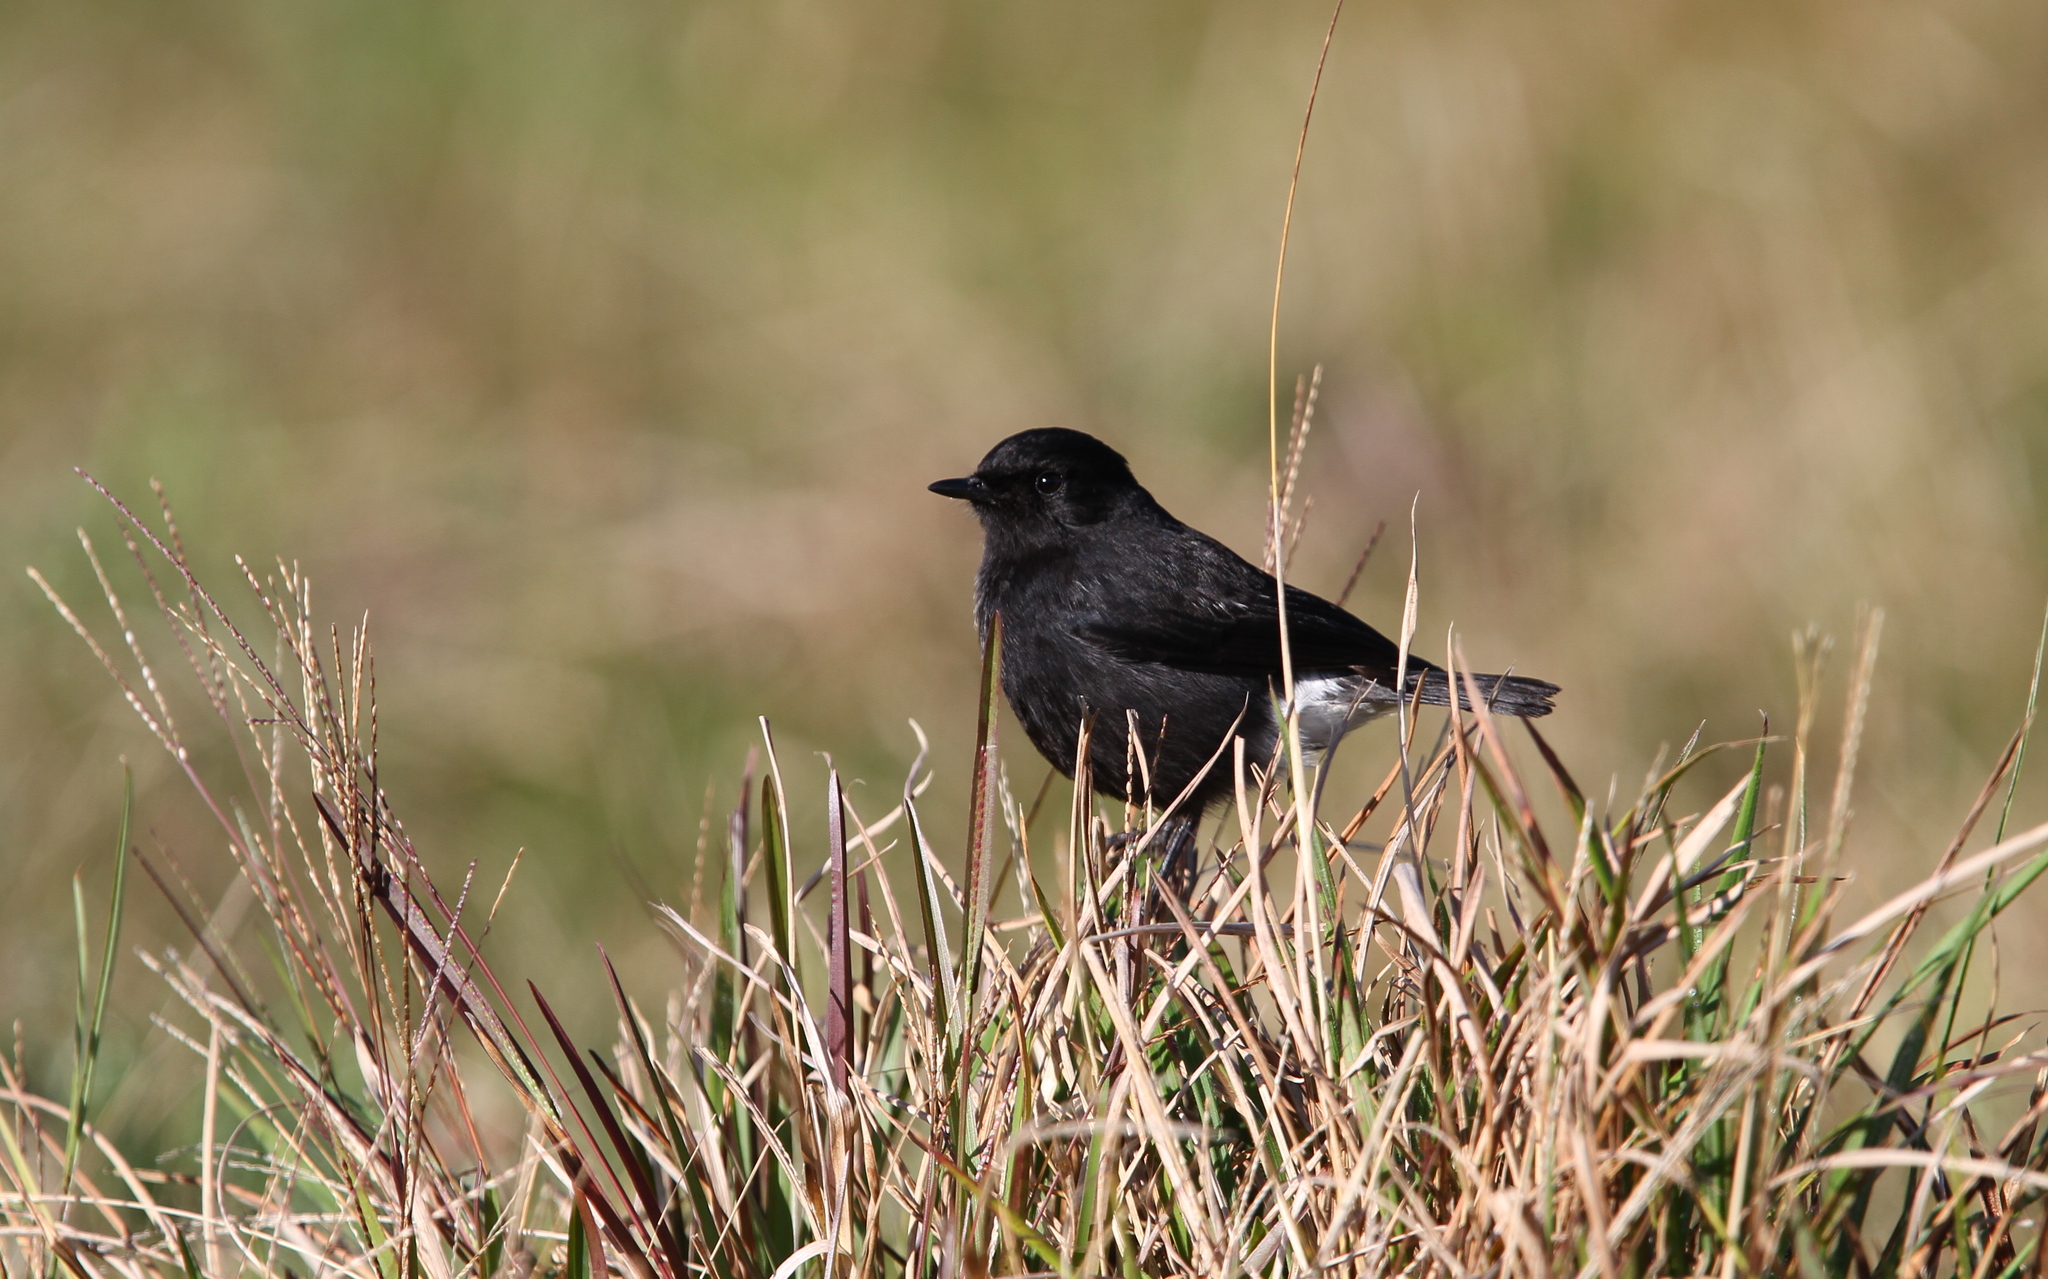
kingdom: Animalia
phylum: Chordata
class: Aves
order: Passeriformes
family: Muscicapidae
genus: Saxicola
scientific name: Saxicola caprata
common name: Pied bush chat
